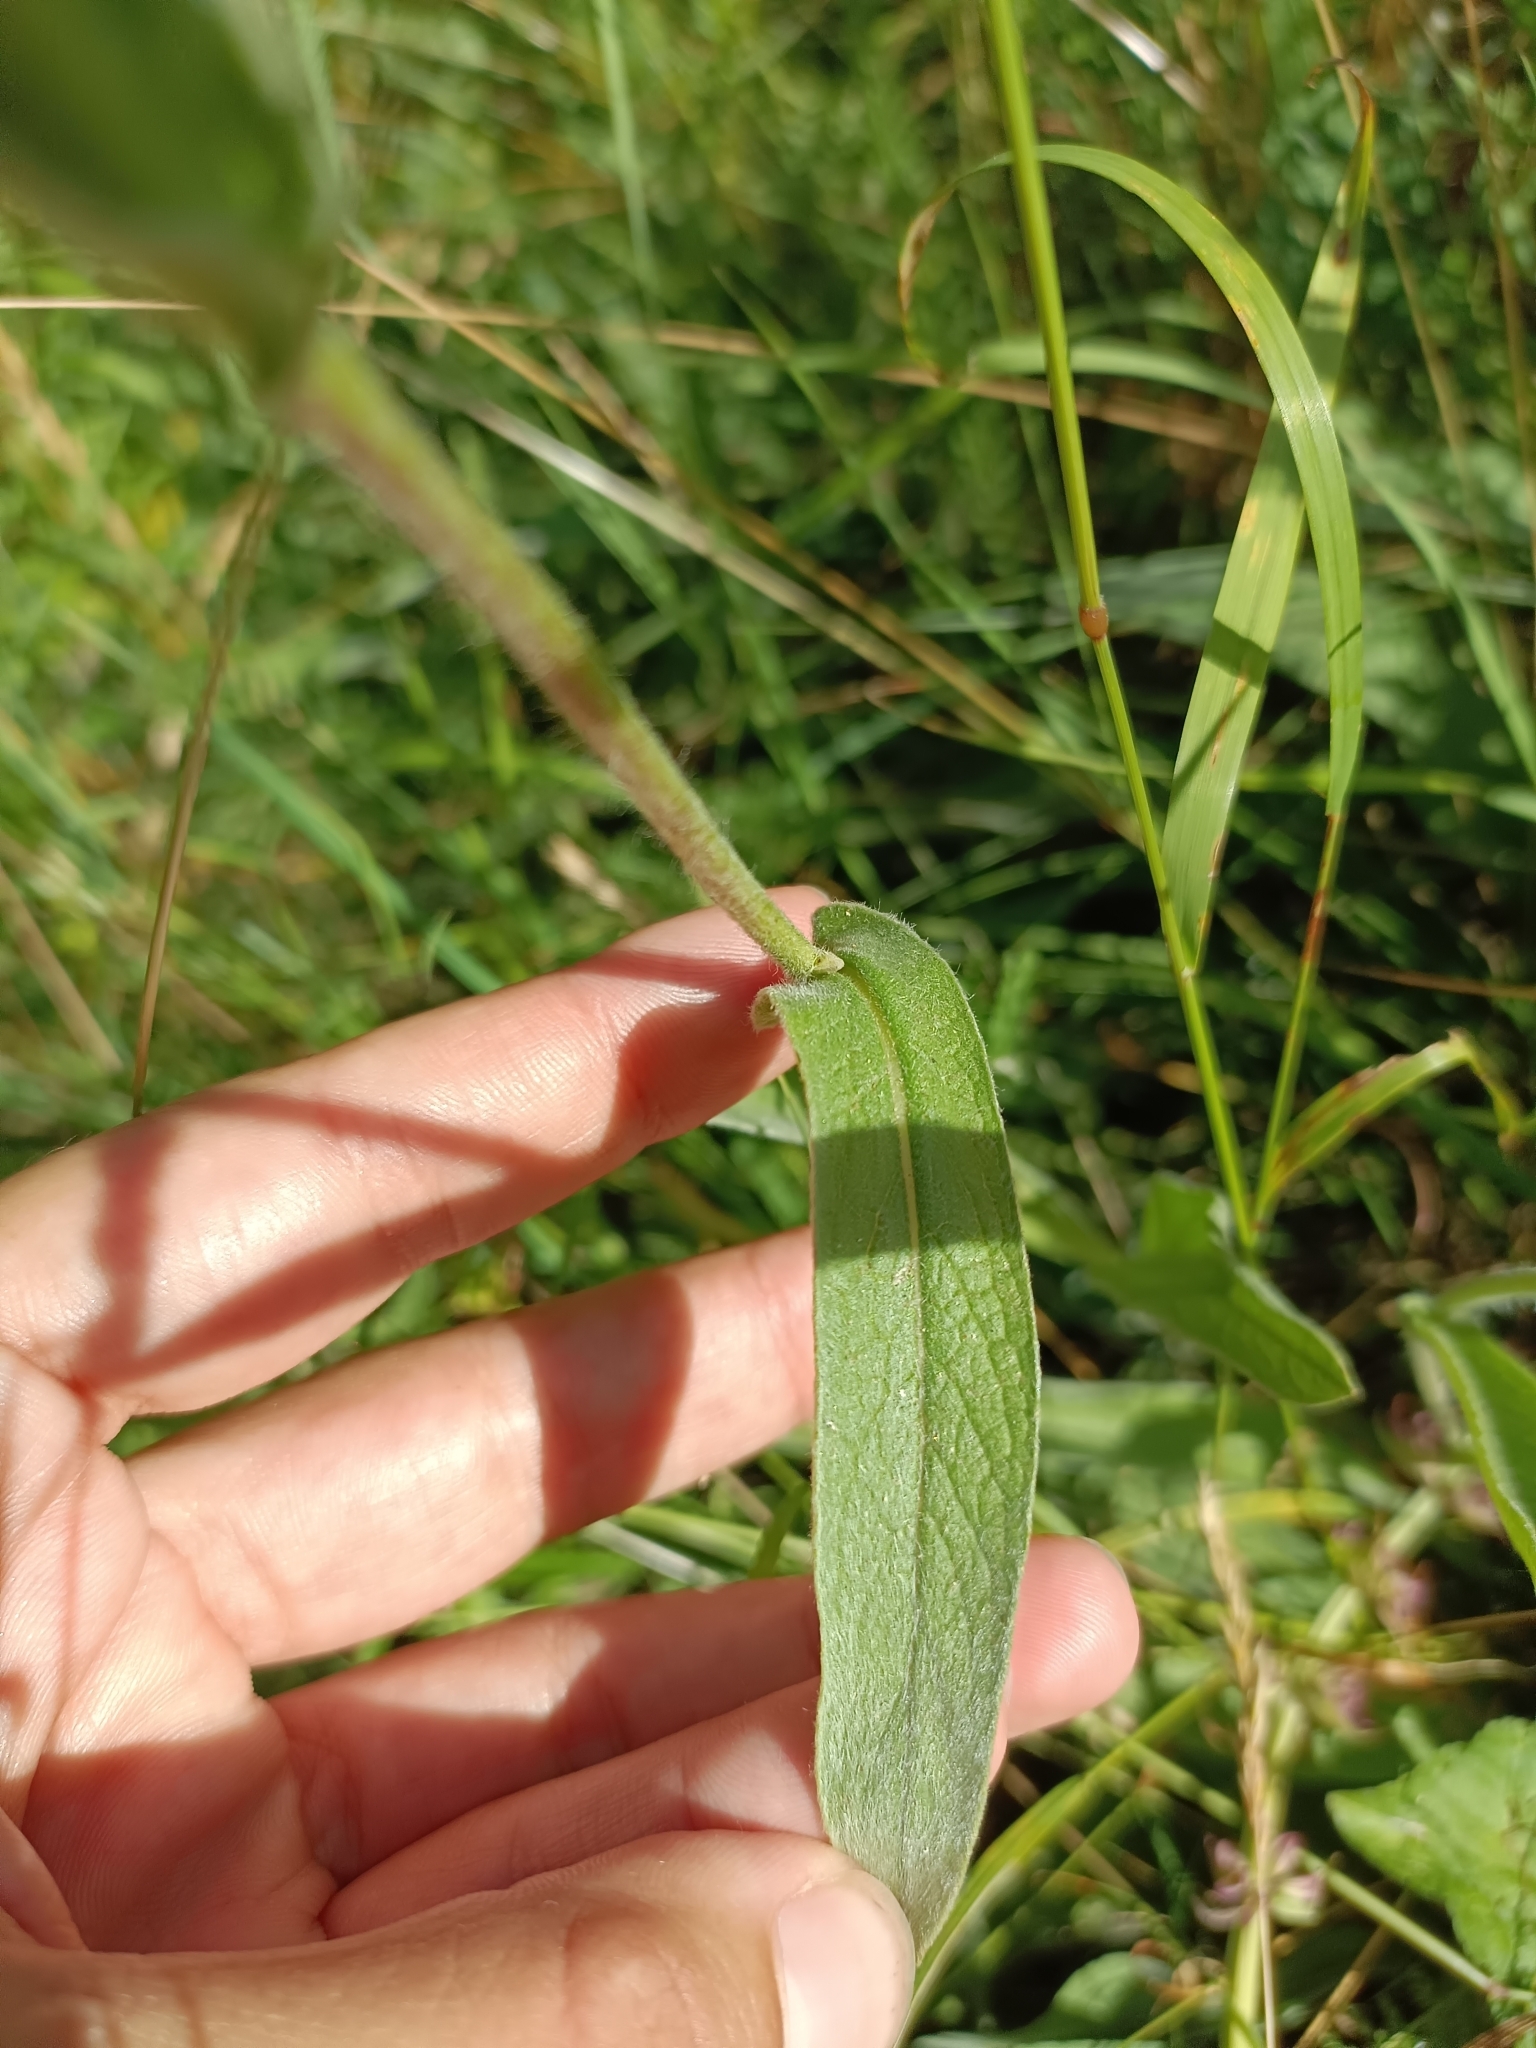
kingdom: Plantae
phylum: Tracheophyta
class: Magnoliopsida
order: Asterales
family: Asteraceae
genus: Pentanema
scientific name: Pentanema oculus-christi
